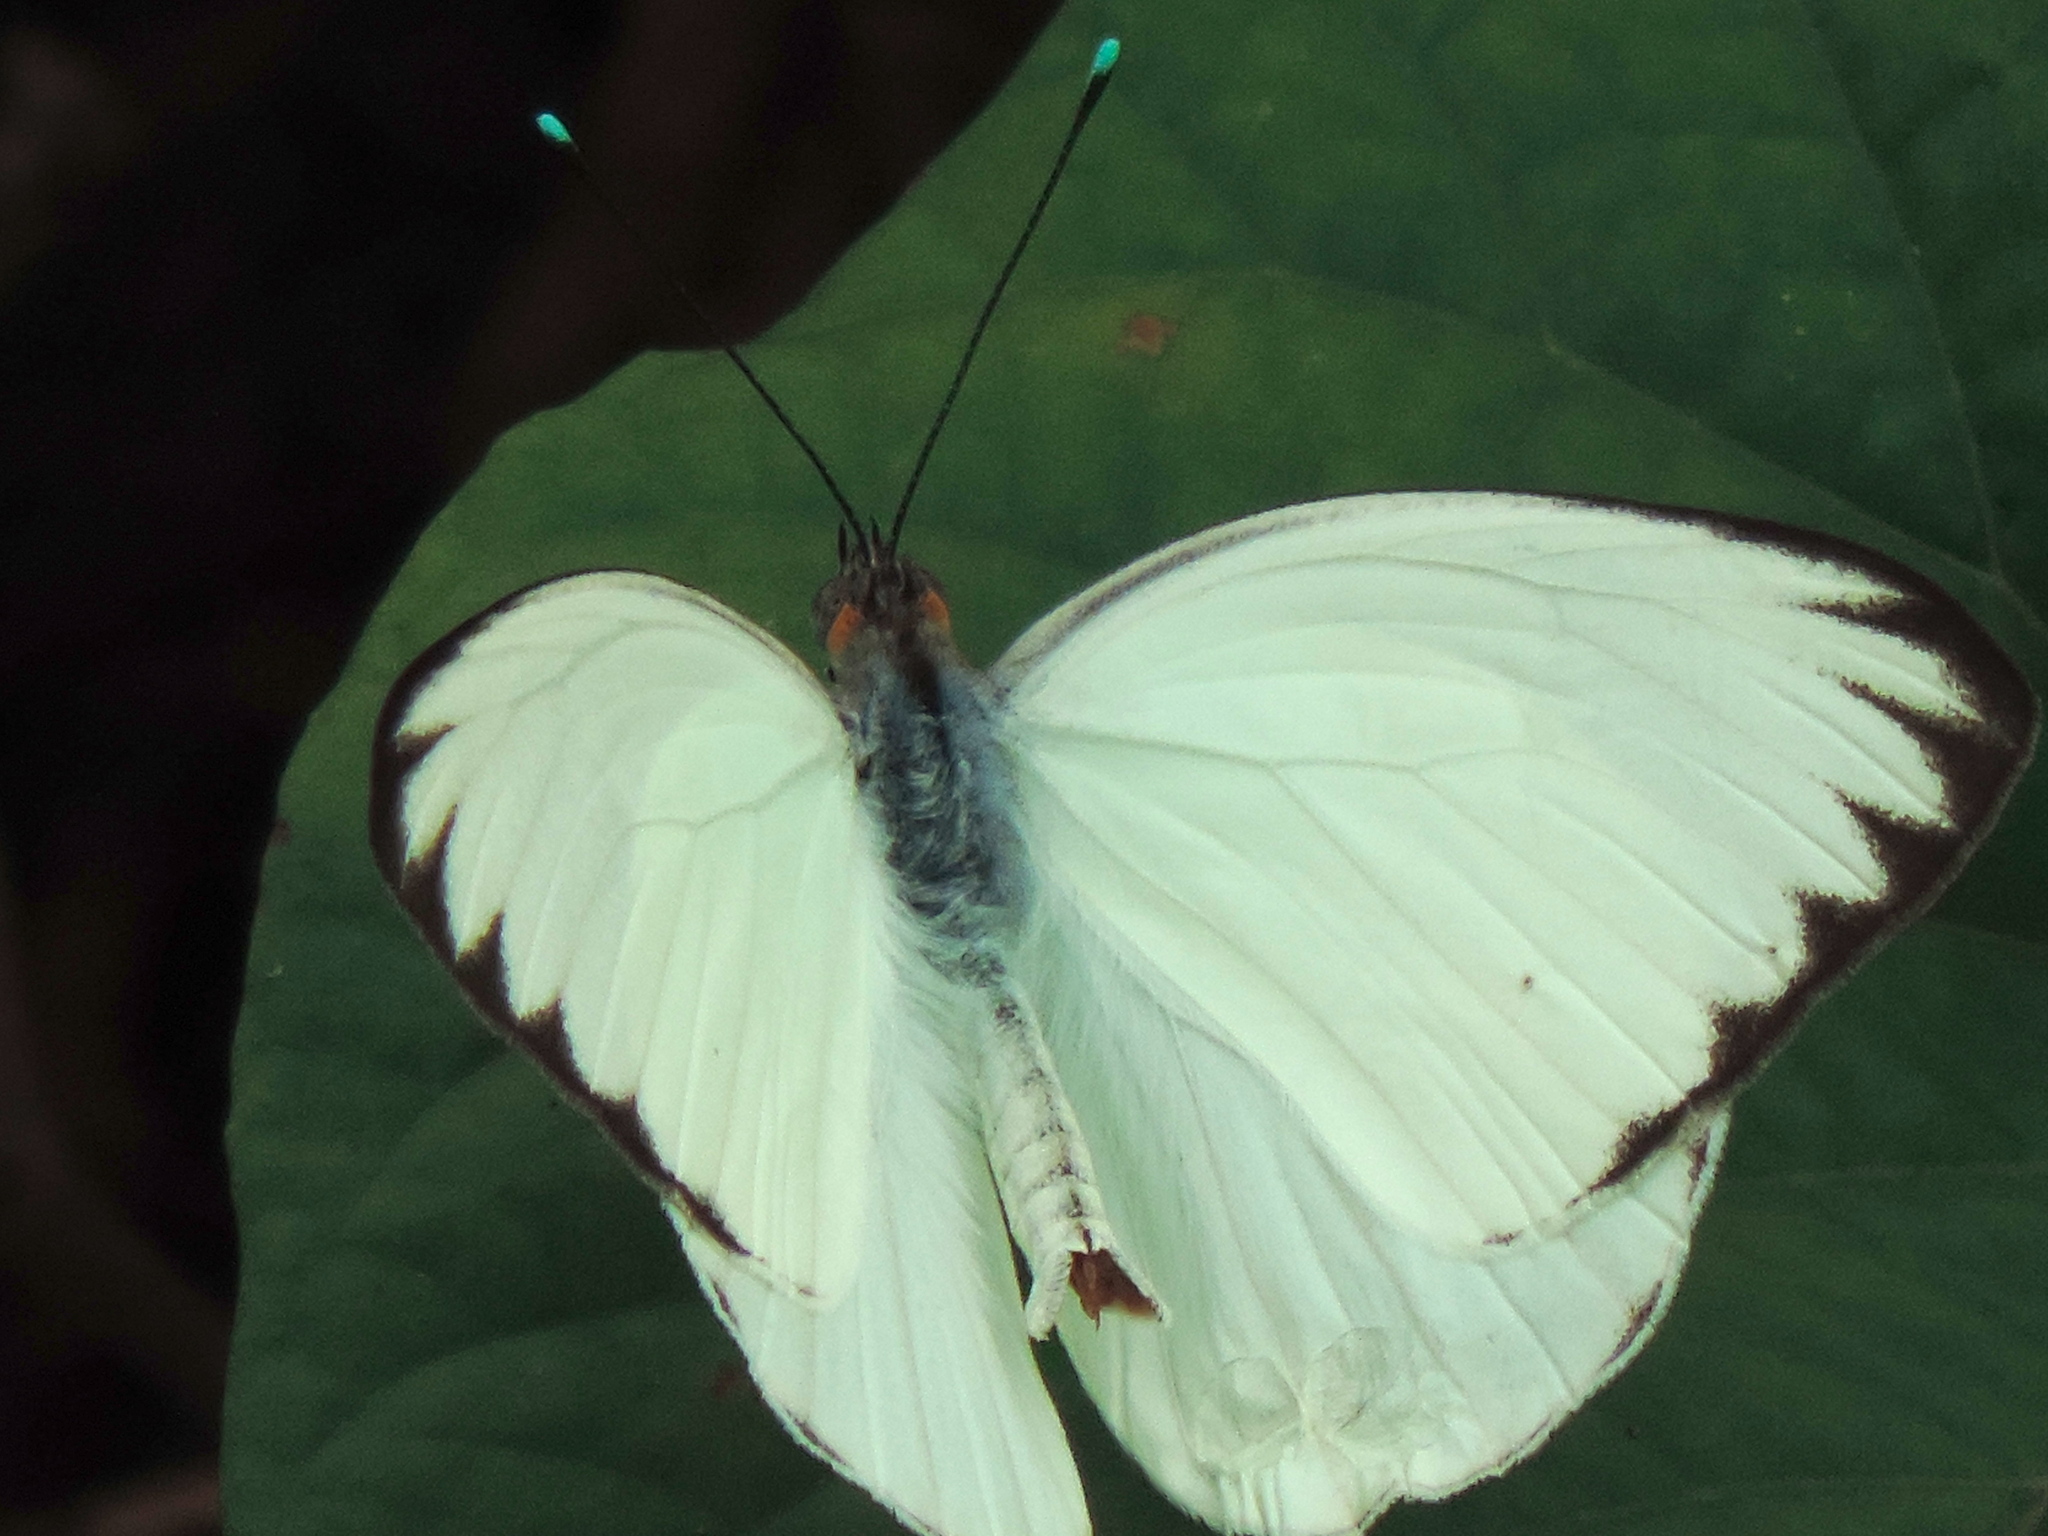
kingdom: Animalia
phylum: Arthropoda
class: Insecta
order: Lepidoptera
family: Pieridae
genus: Ascia
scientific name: Ascia monuste
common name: Great southern white
